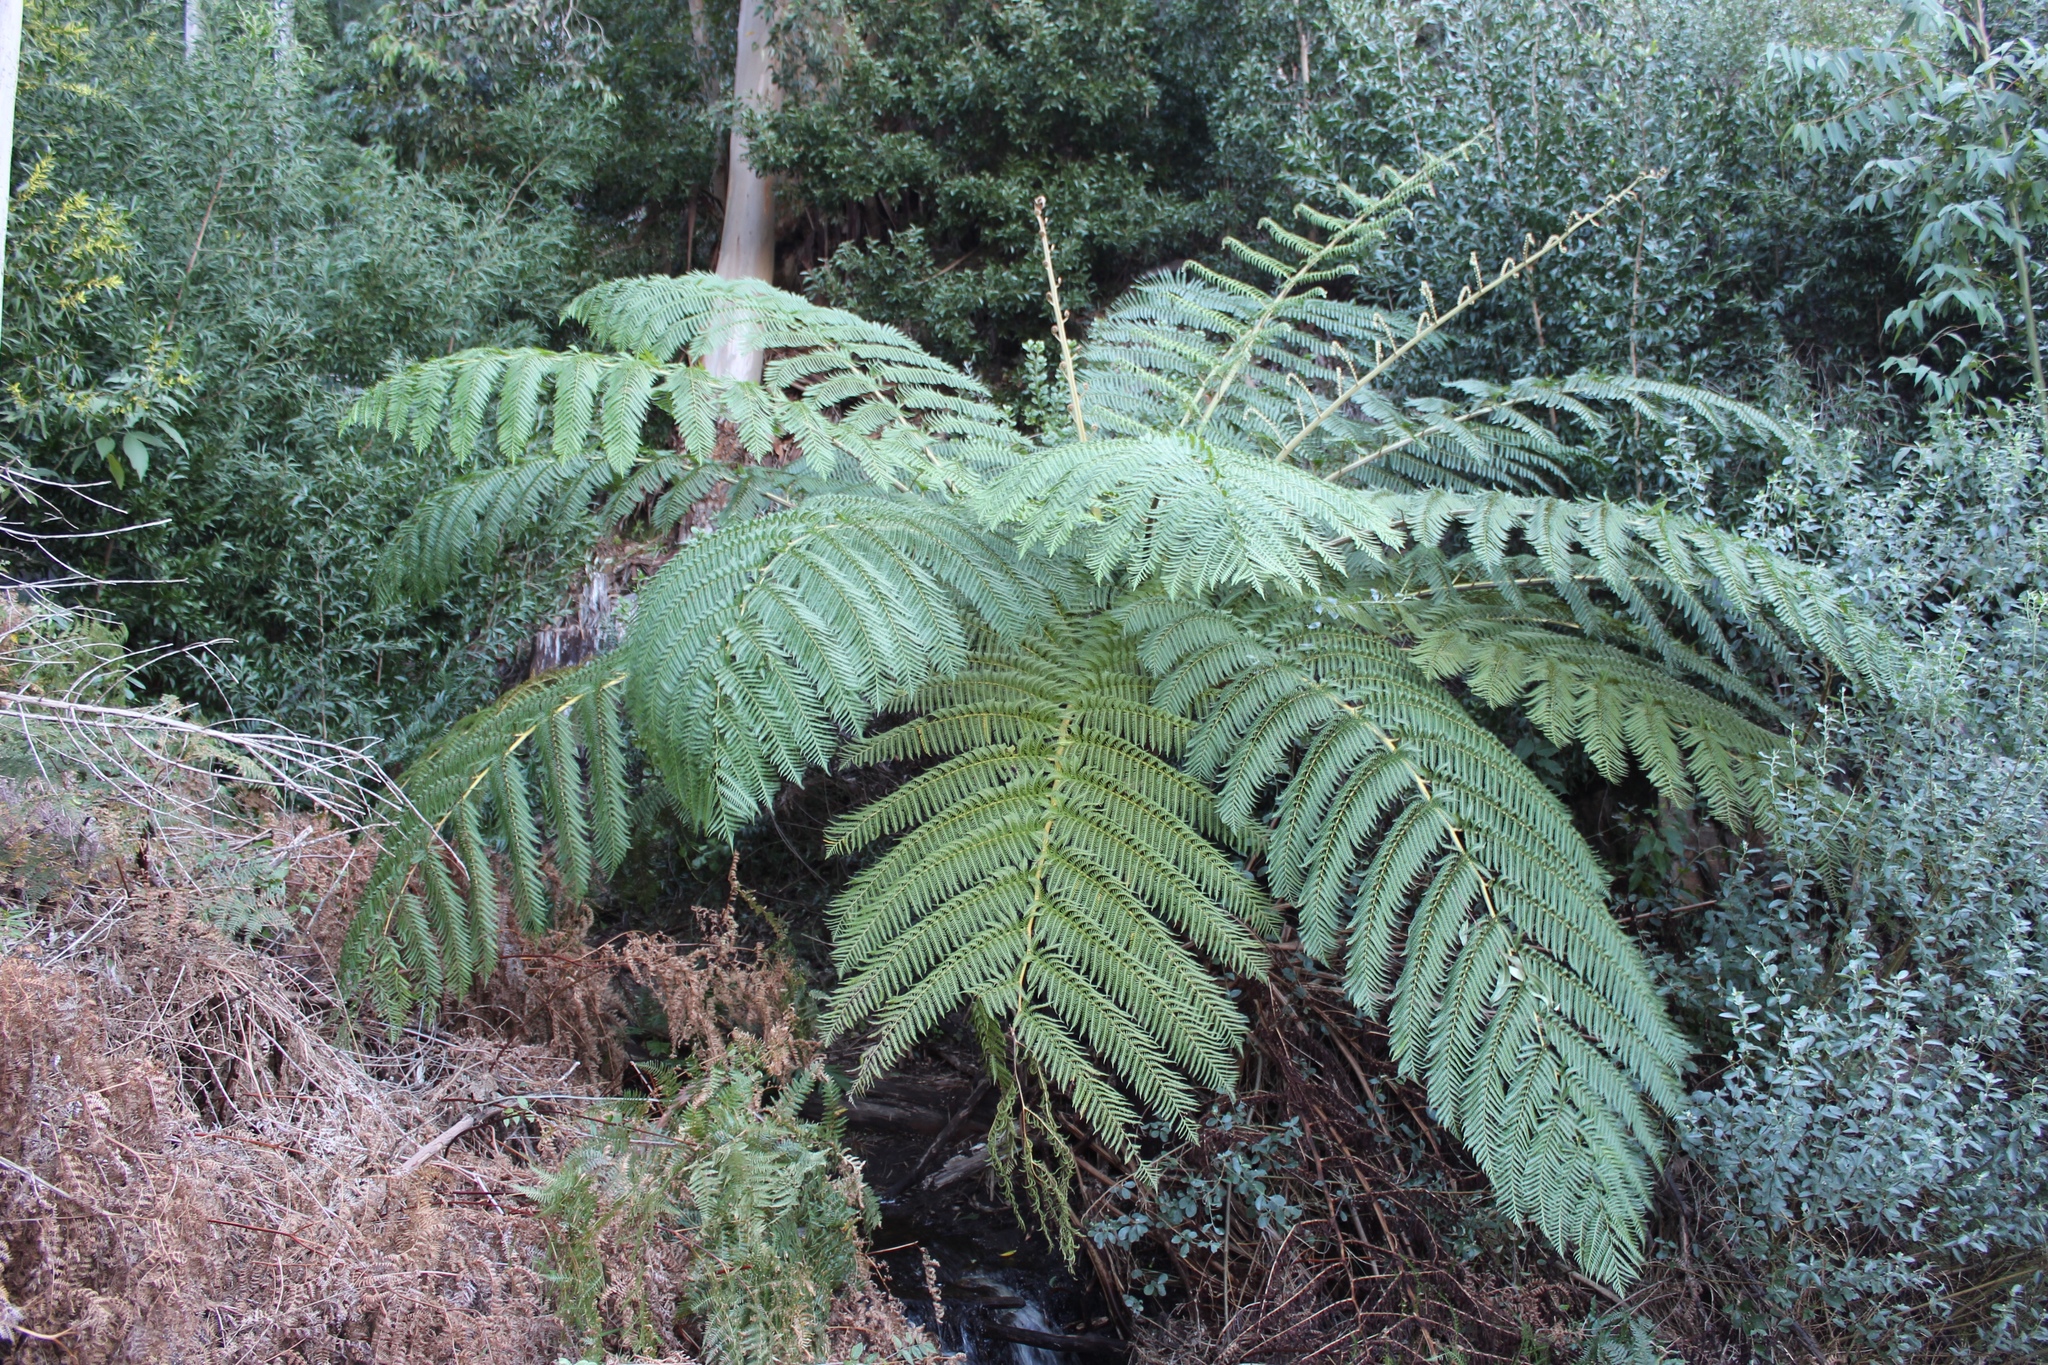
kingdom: Plantae
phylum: Tracheophyta
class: Polypodiopsida
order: Cyatheales
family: Cyatheaceae
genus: Sphaeropteris
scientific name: Sphaeropteris cooperi
